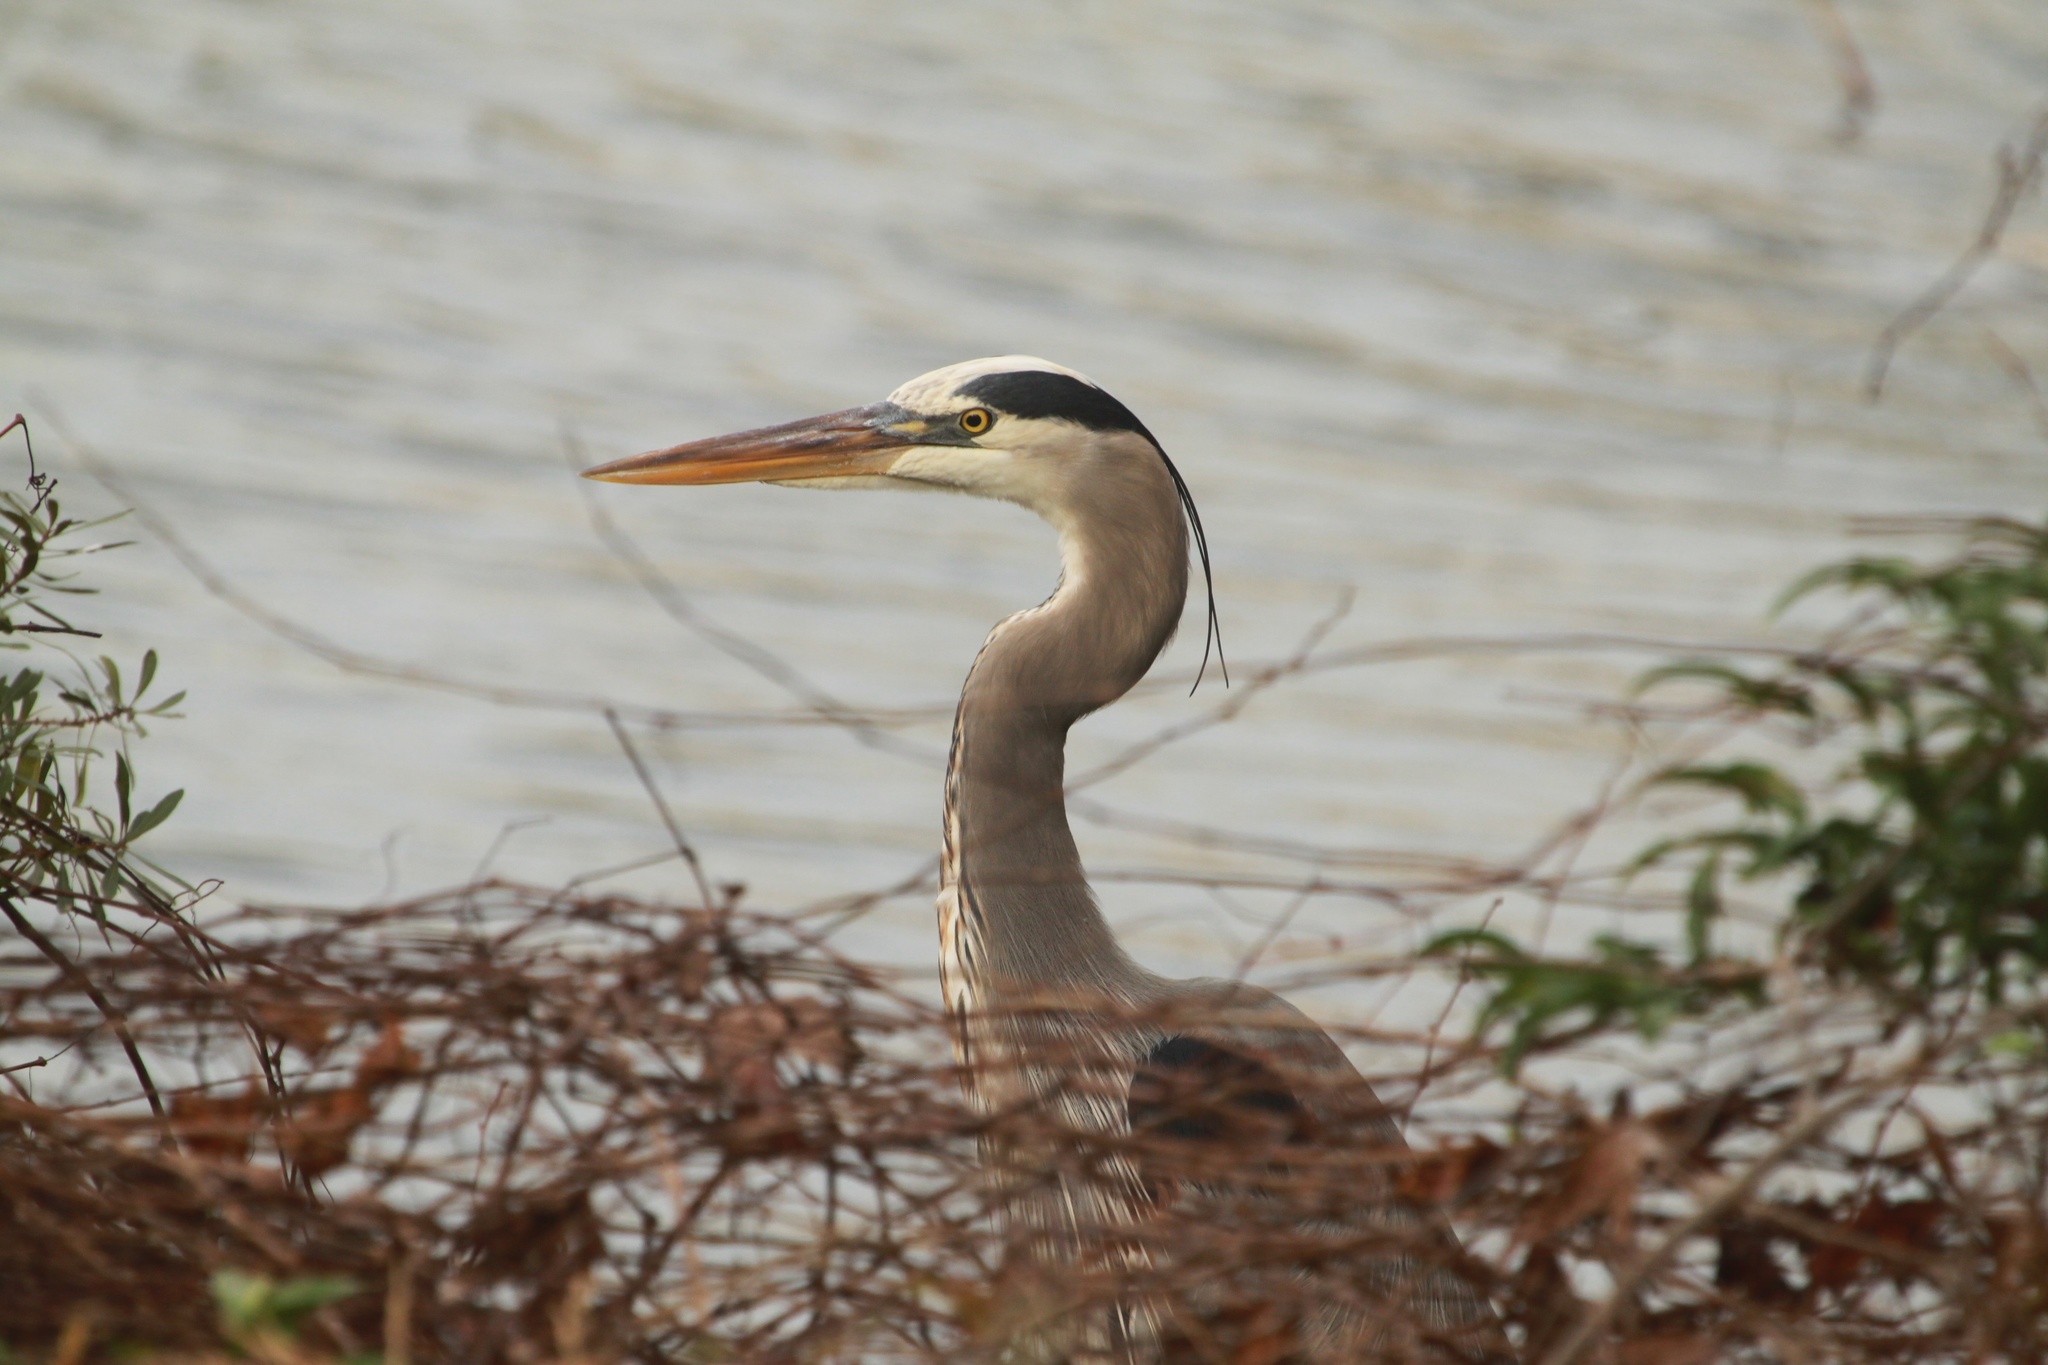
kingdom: Animalia
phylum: Chordata
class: Aves
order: Pelecaniformes
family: Ardeidae
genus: Ardea
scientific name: Ardea herodias
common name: Great blue heron
